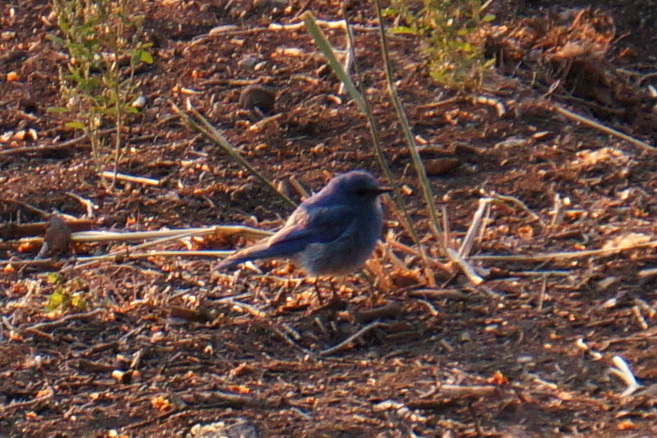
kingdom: Animalia
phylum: Chordata
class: Aves
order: Passeriformes
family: Turdidae
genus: Sialia
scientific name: Sialia currucoides
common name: Mountain bluebird
